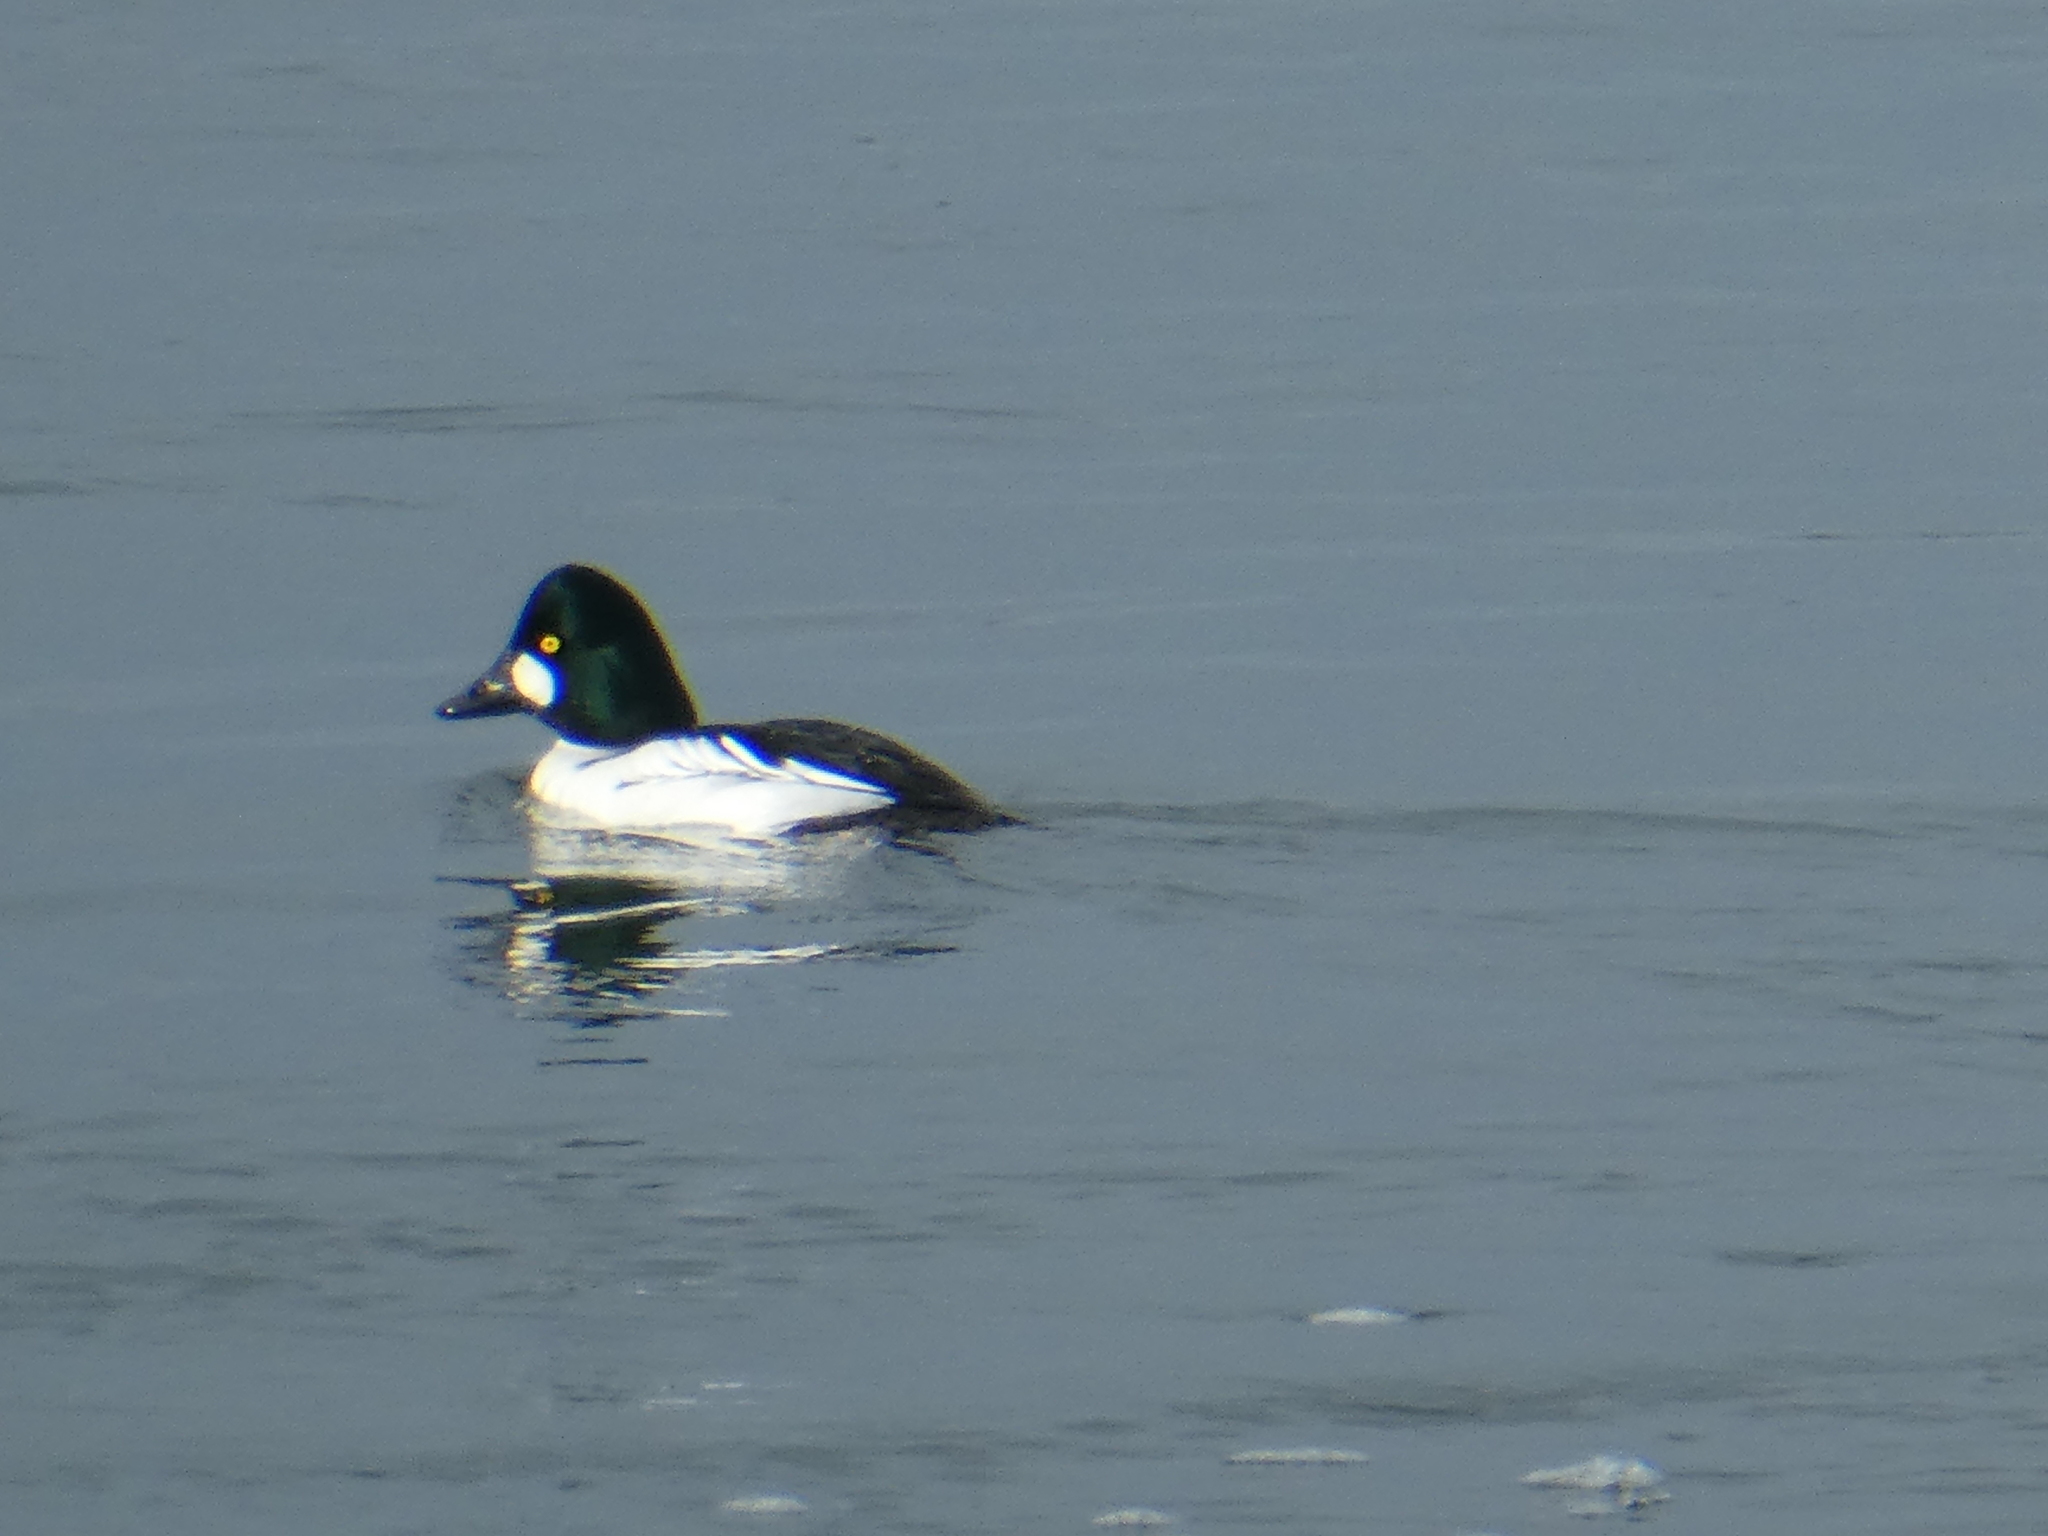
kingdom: Animalia
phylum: Chordata
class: Aves
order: Anseriformes
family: Anatidae
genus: Bucephala
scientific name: Bucephala clangula
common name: Common goldeneye
